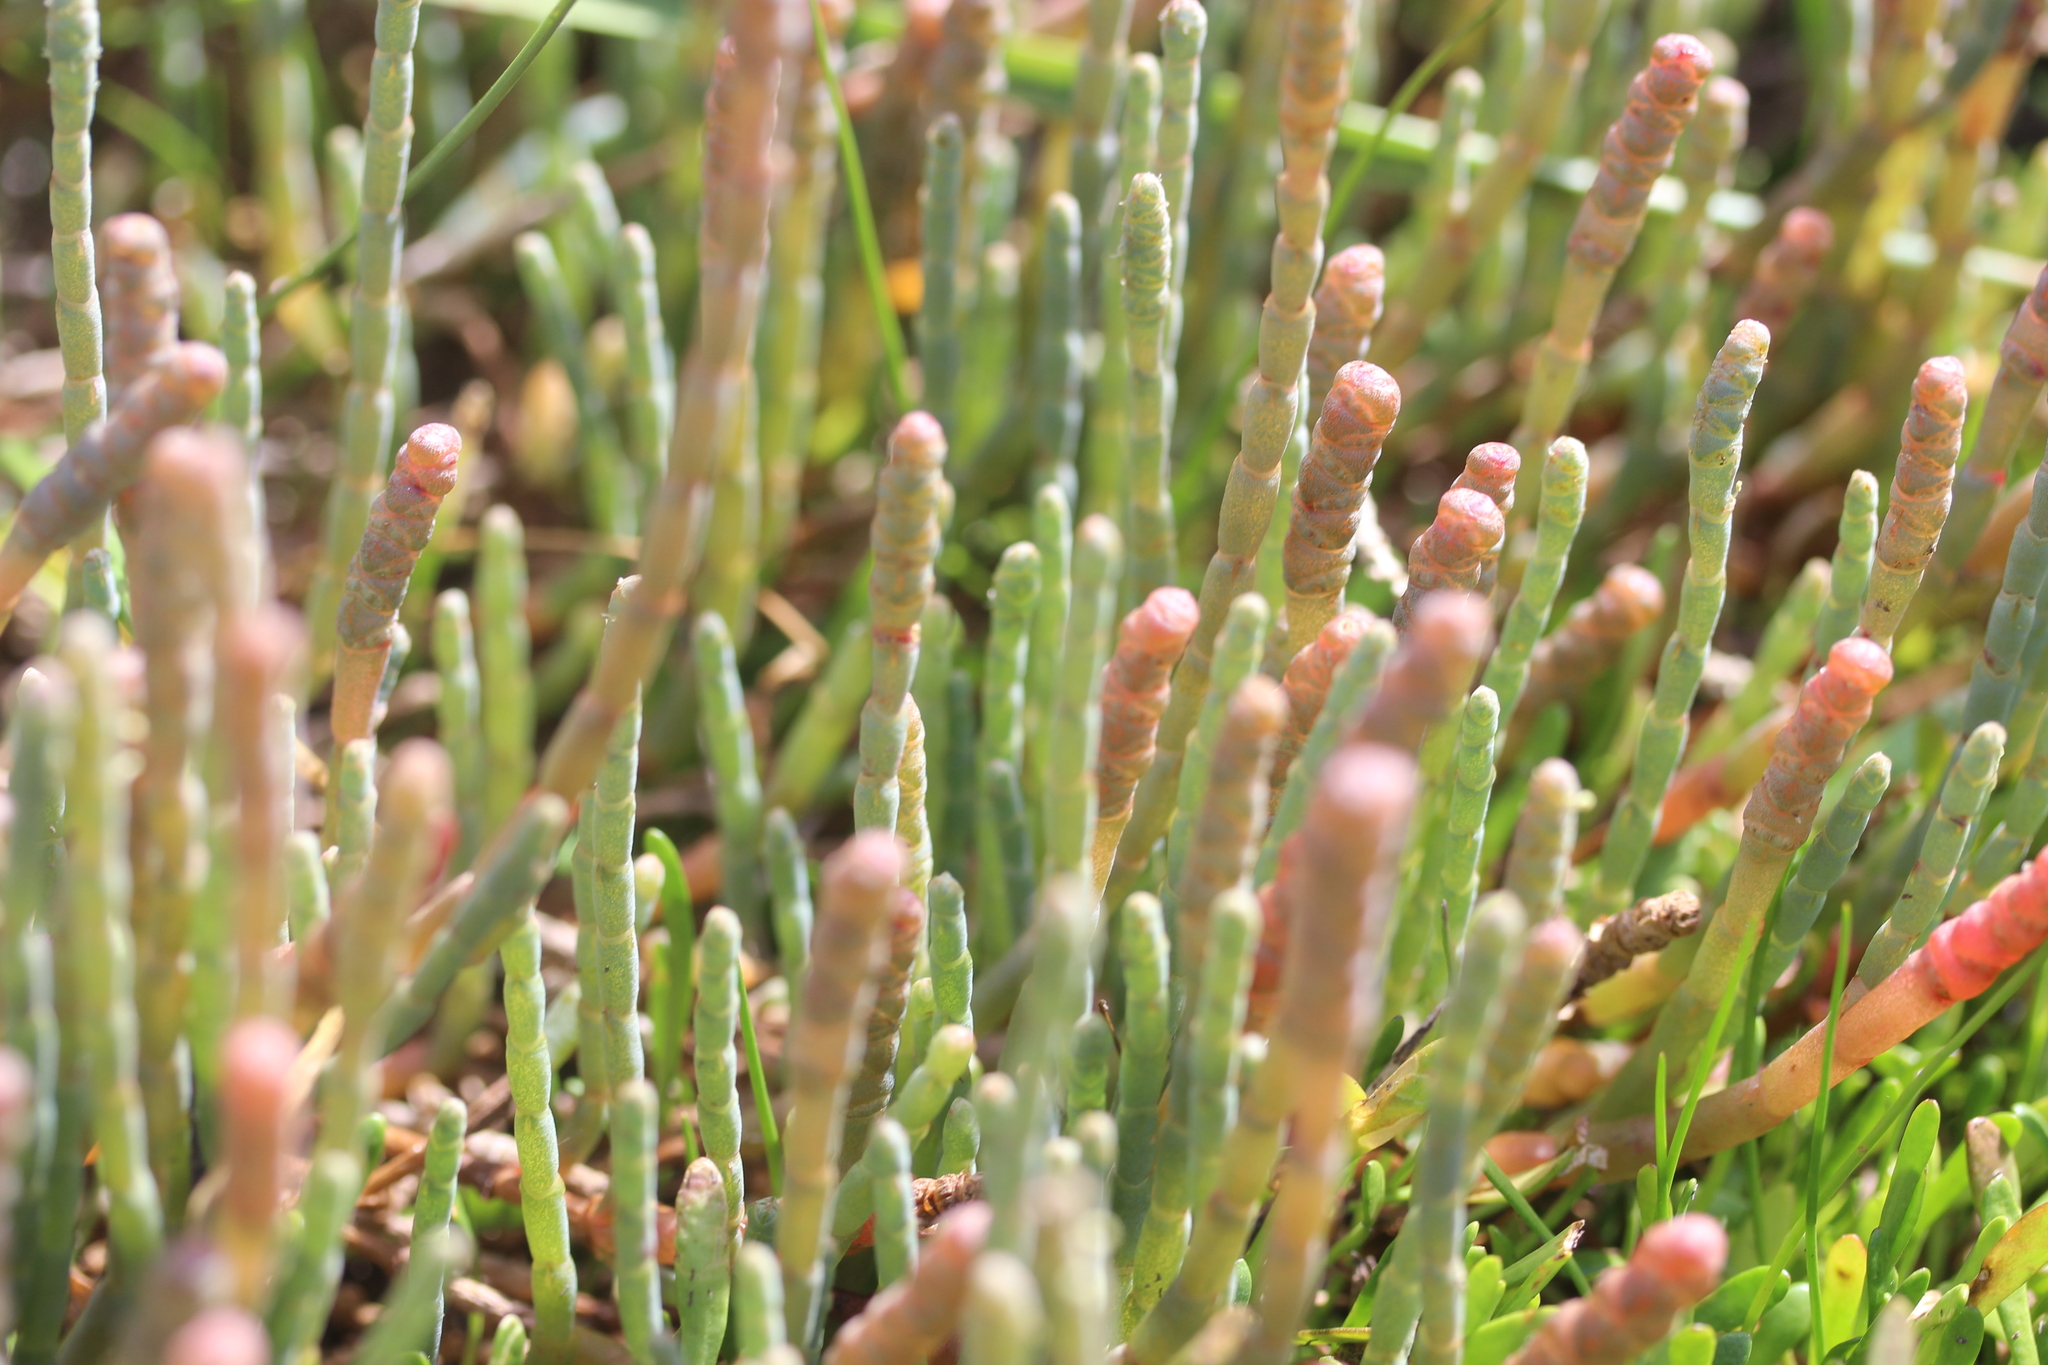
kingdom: Plantae
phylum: Tracheophyta
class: Magnoliopsida
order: Caryophyllales
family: Amaranthaceae
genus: Salicornia
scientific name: Salicornia quinqueflora
